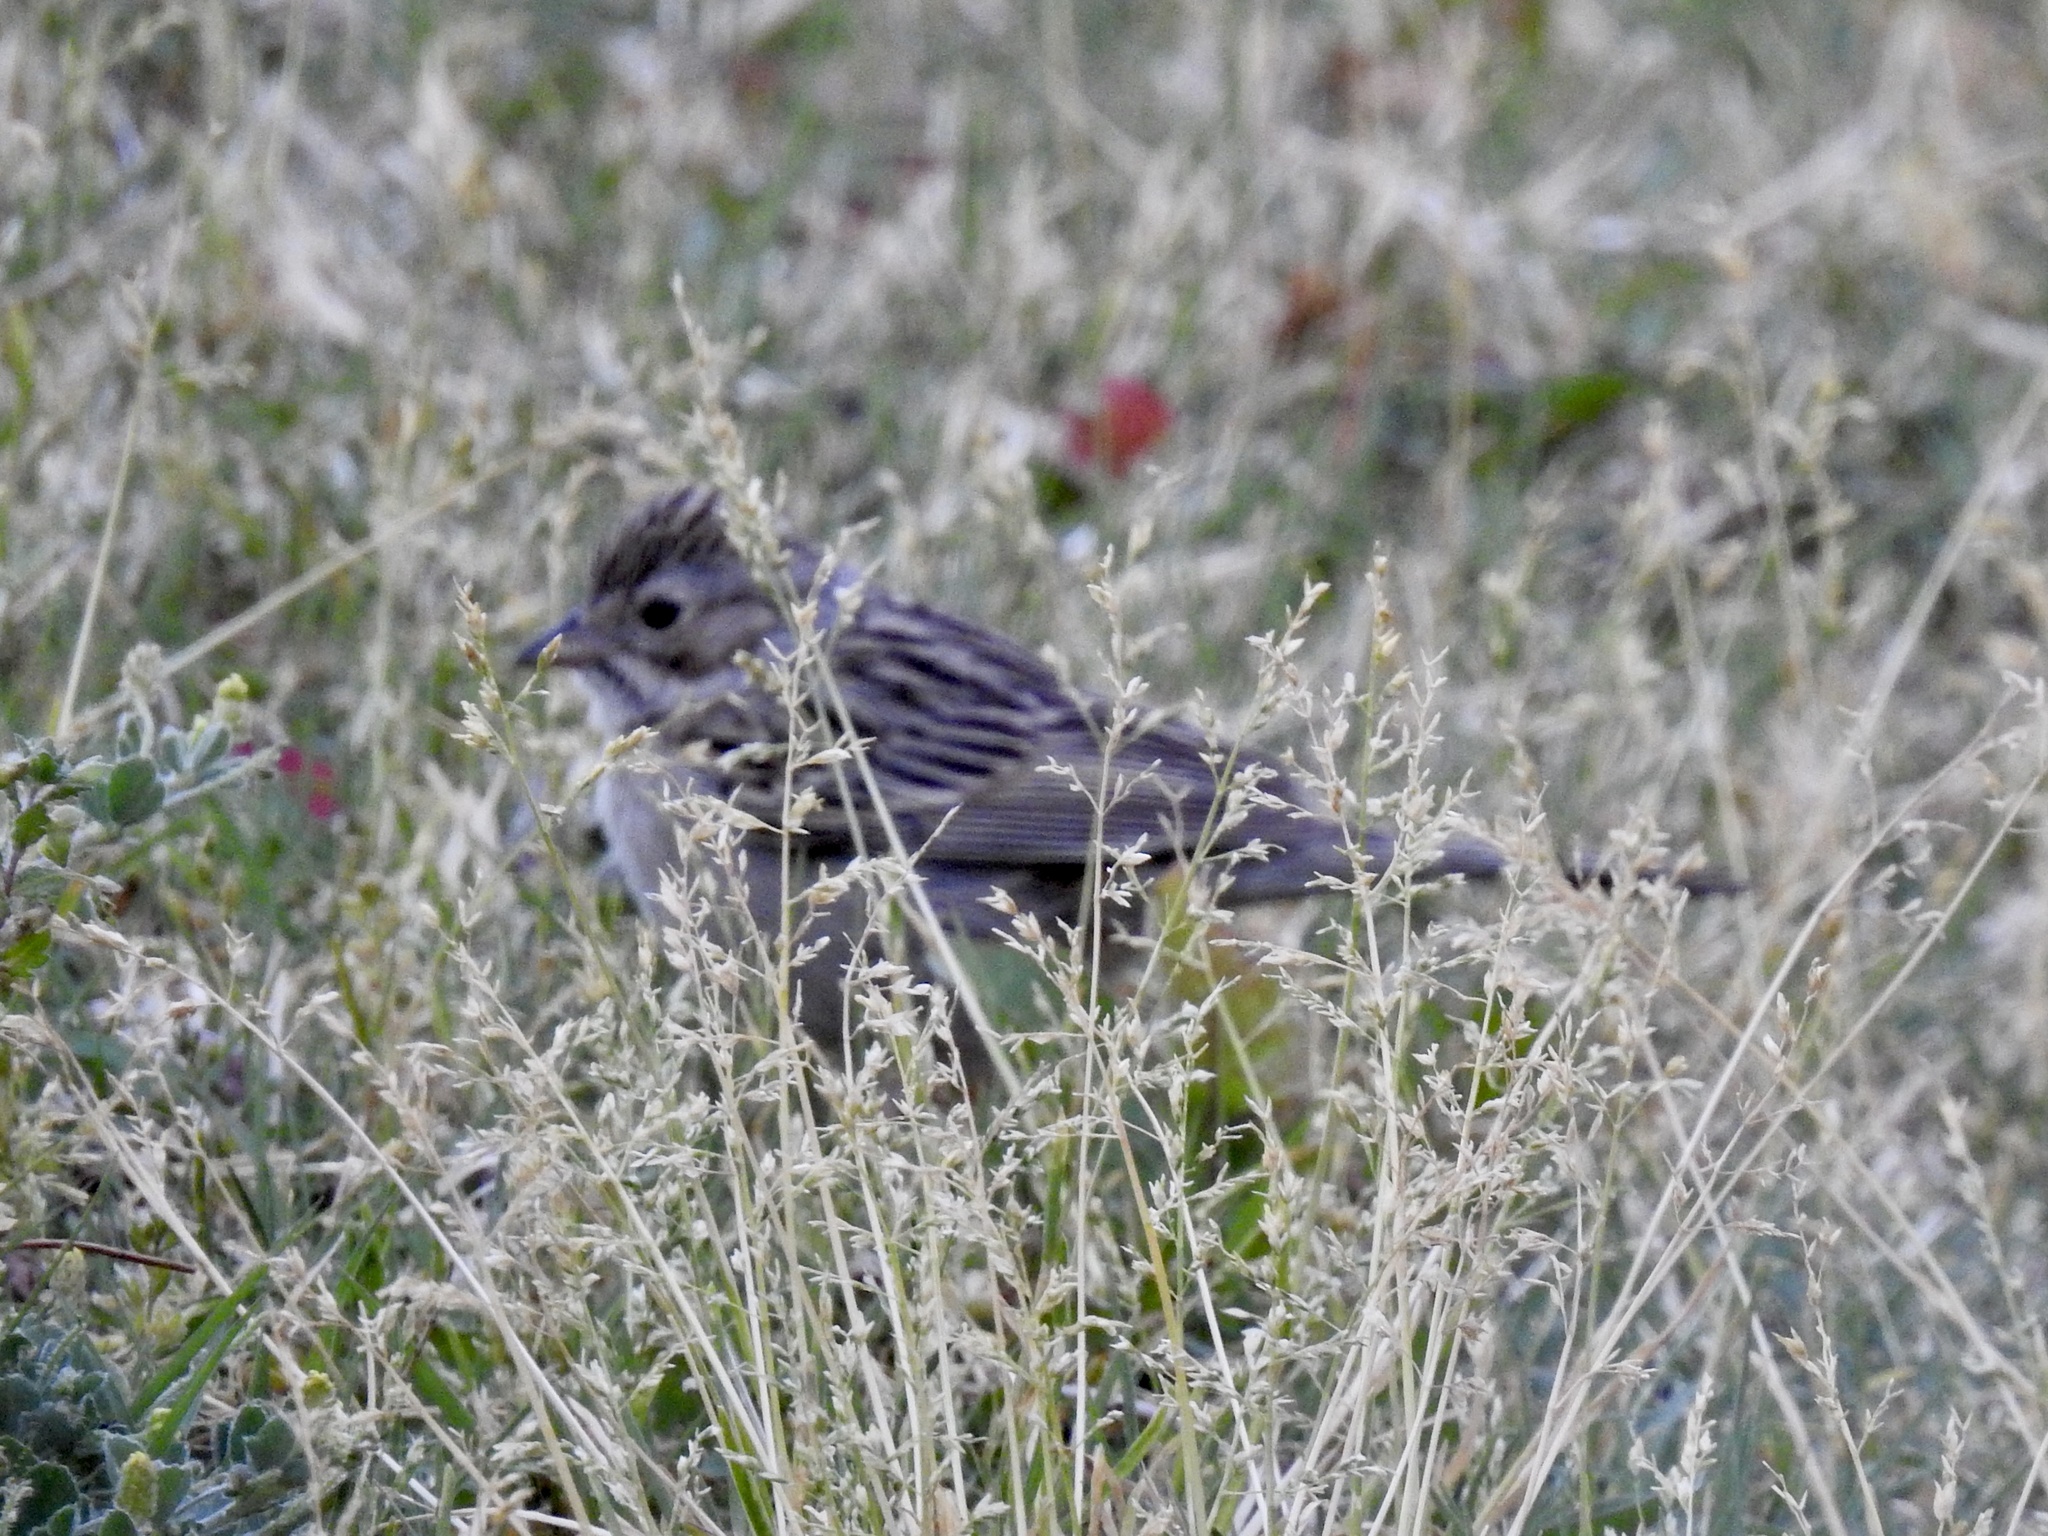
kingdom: Animalia
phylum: Chordata
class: Aves
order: Passeriformes
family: Passerellidae
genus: Spizella
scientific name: Spizella breweri
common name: Brewer's sparrow
